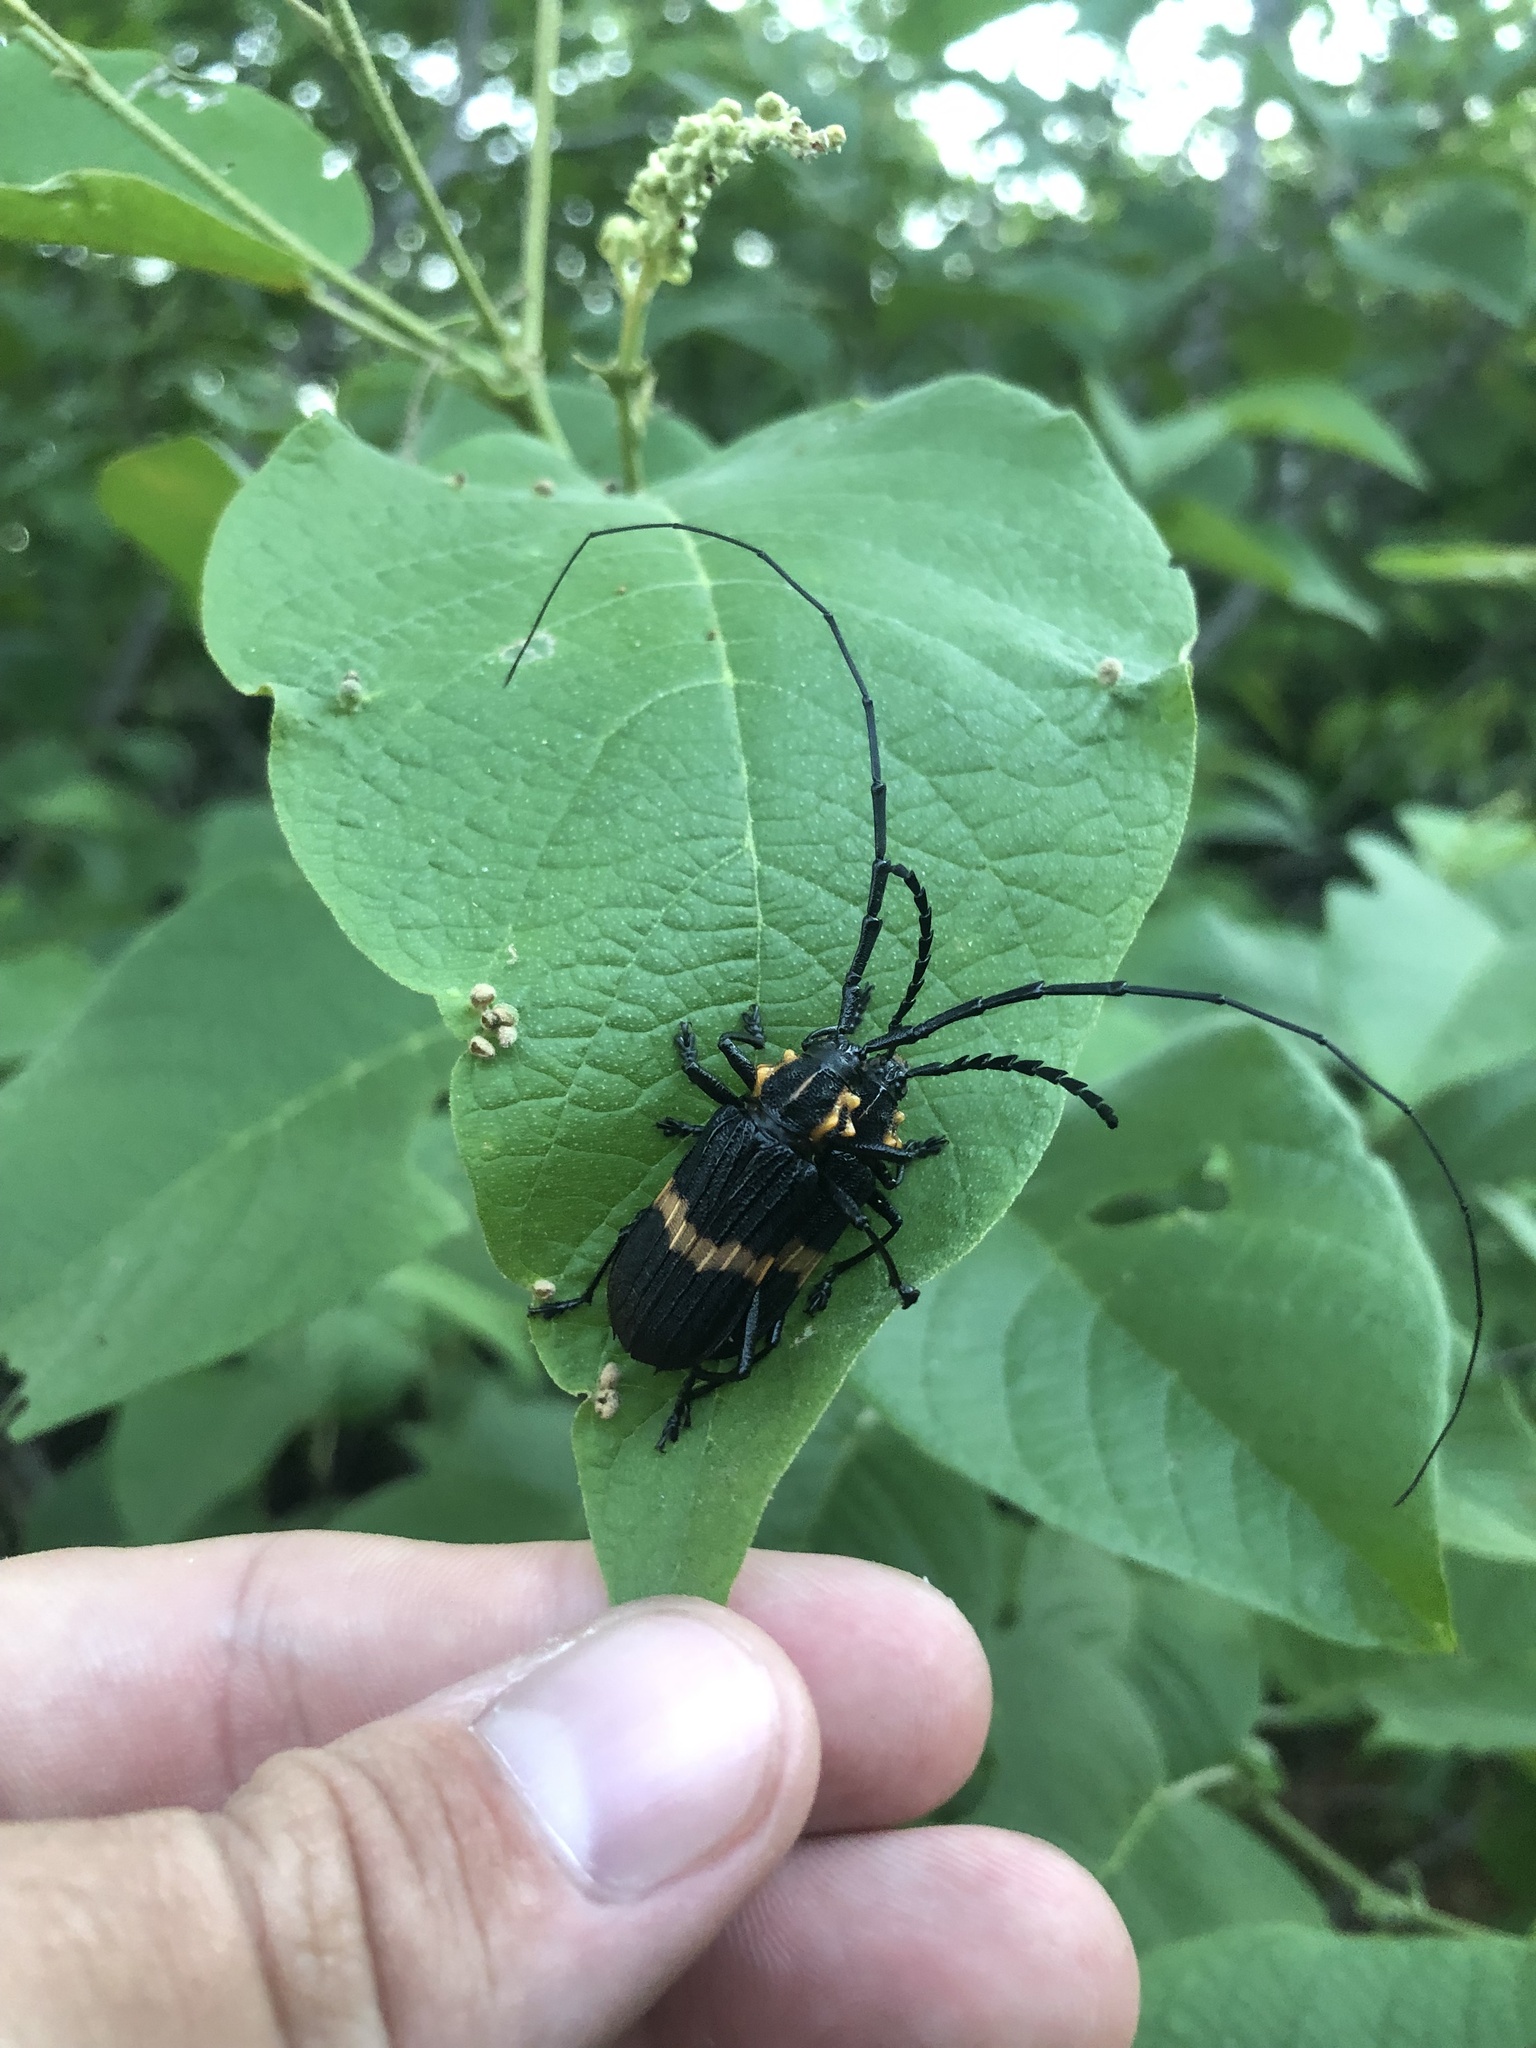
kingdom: Animalia
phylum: Arthropoda
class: Insecta
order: Coleoptera
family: Cerambycidae
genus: Pteracantha
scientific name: Pteracantha fasciata
